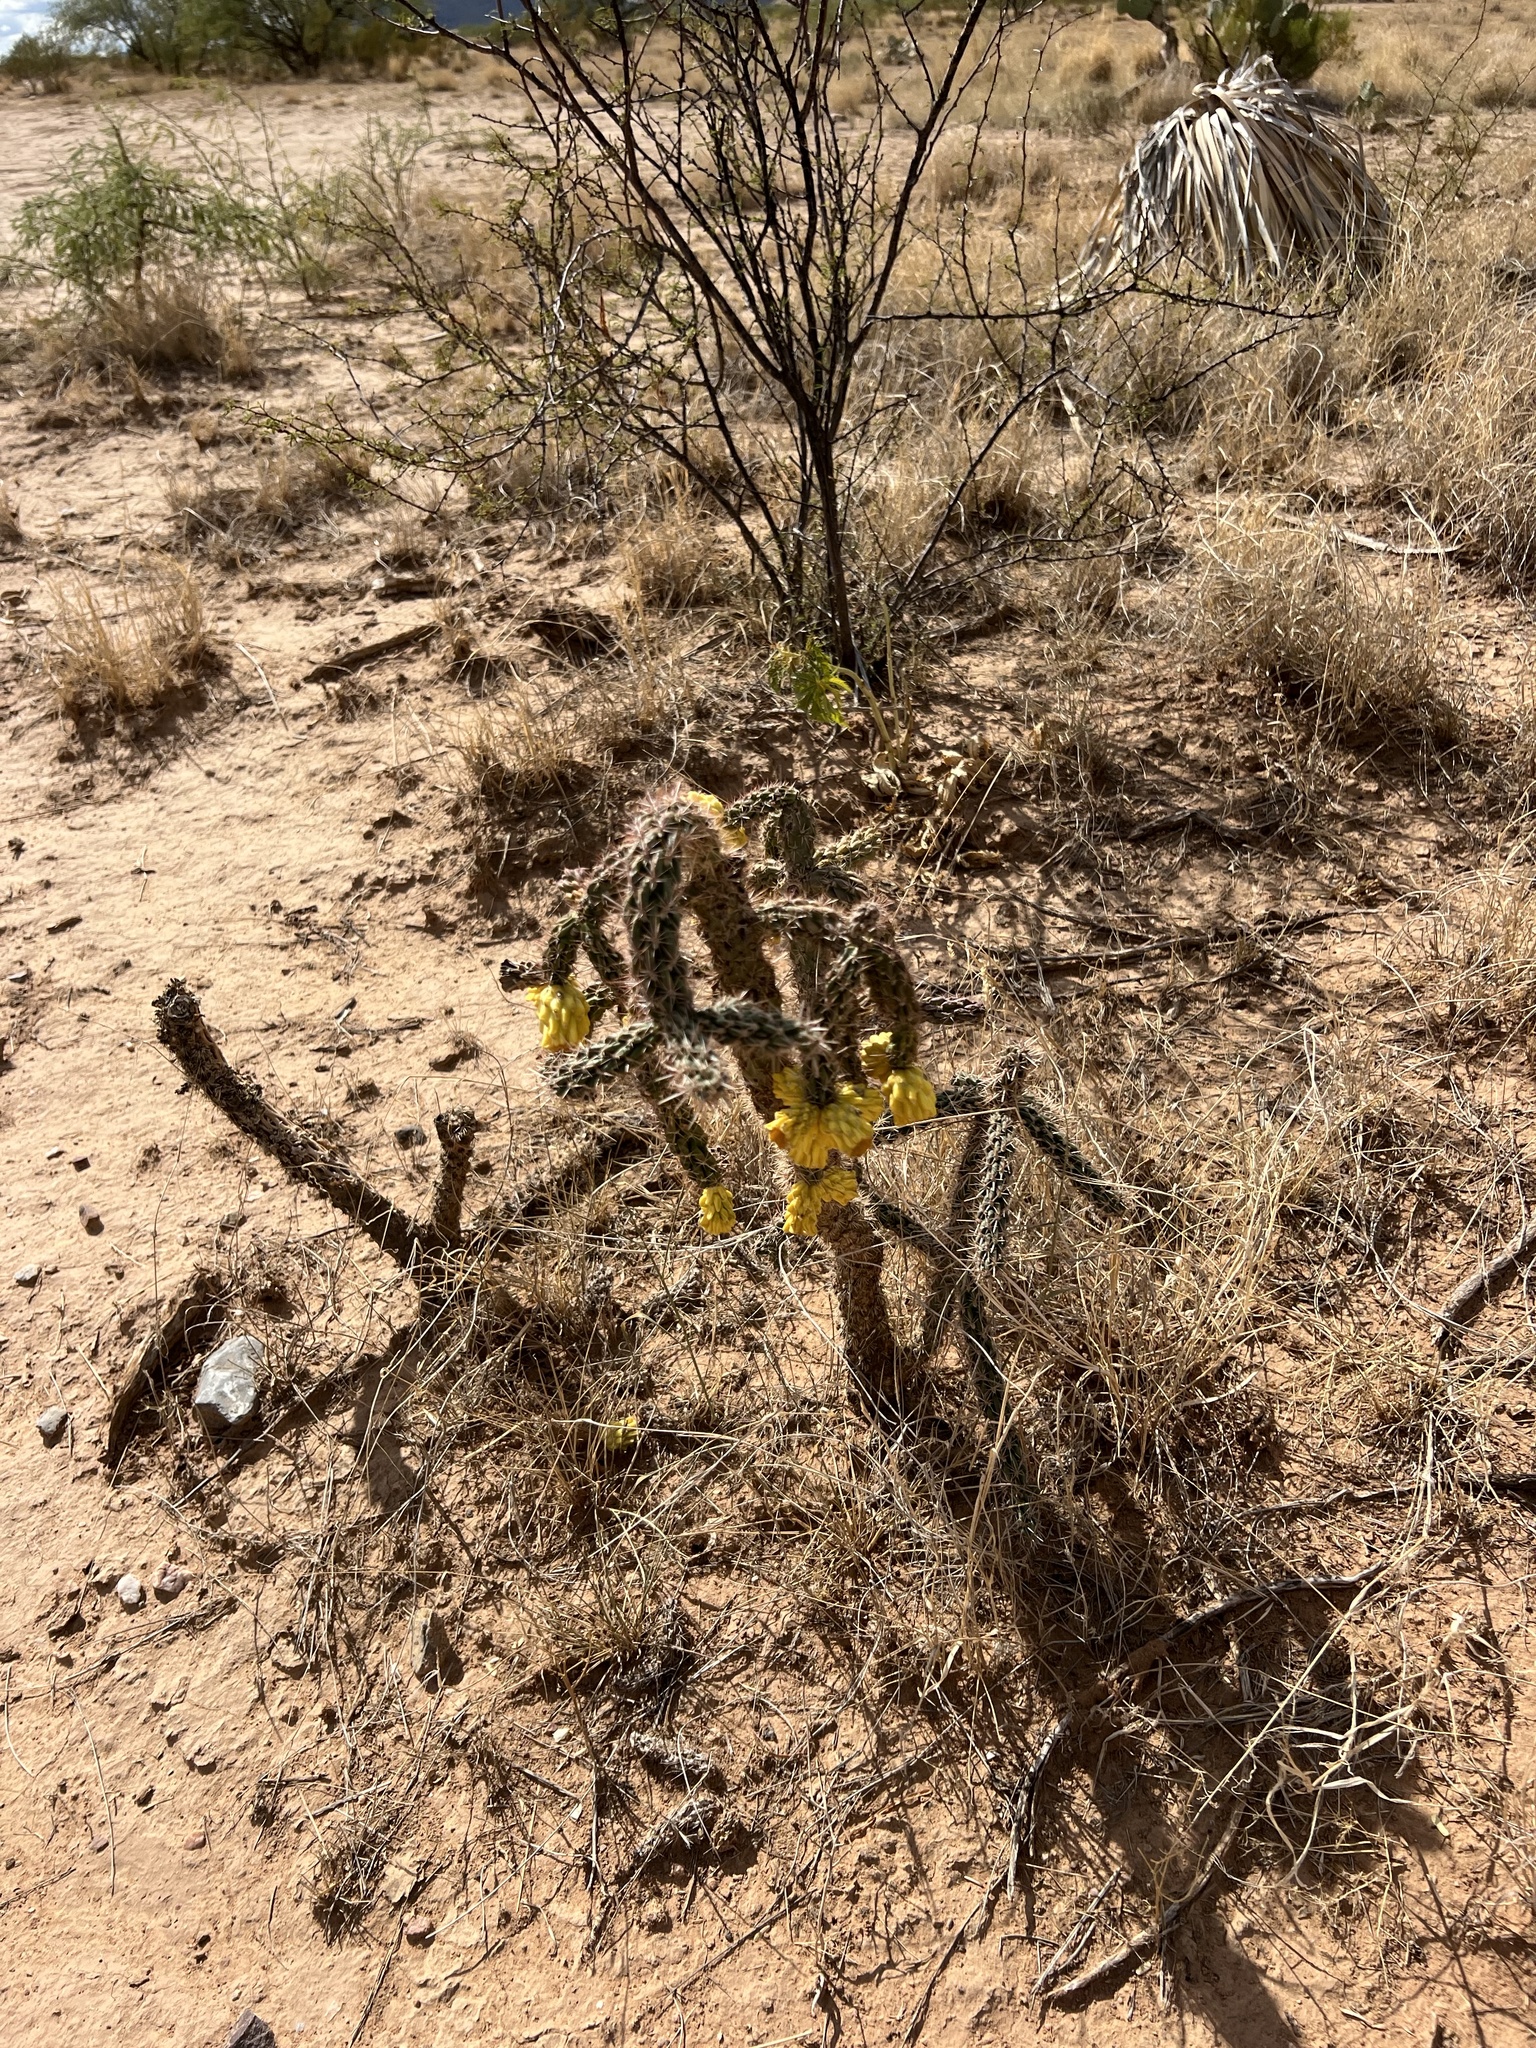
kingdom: Plantae
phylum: Tracheophyta
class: Magnoliopsida
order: Caryophyllales
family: Cactaceae
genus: Cylindropuntia
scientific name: Cylindropuntia imbricata
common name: Candelabrum cactus
